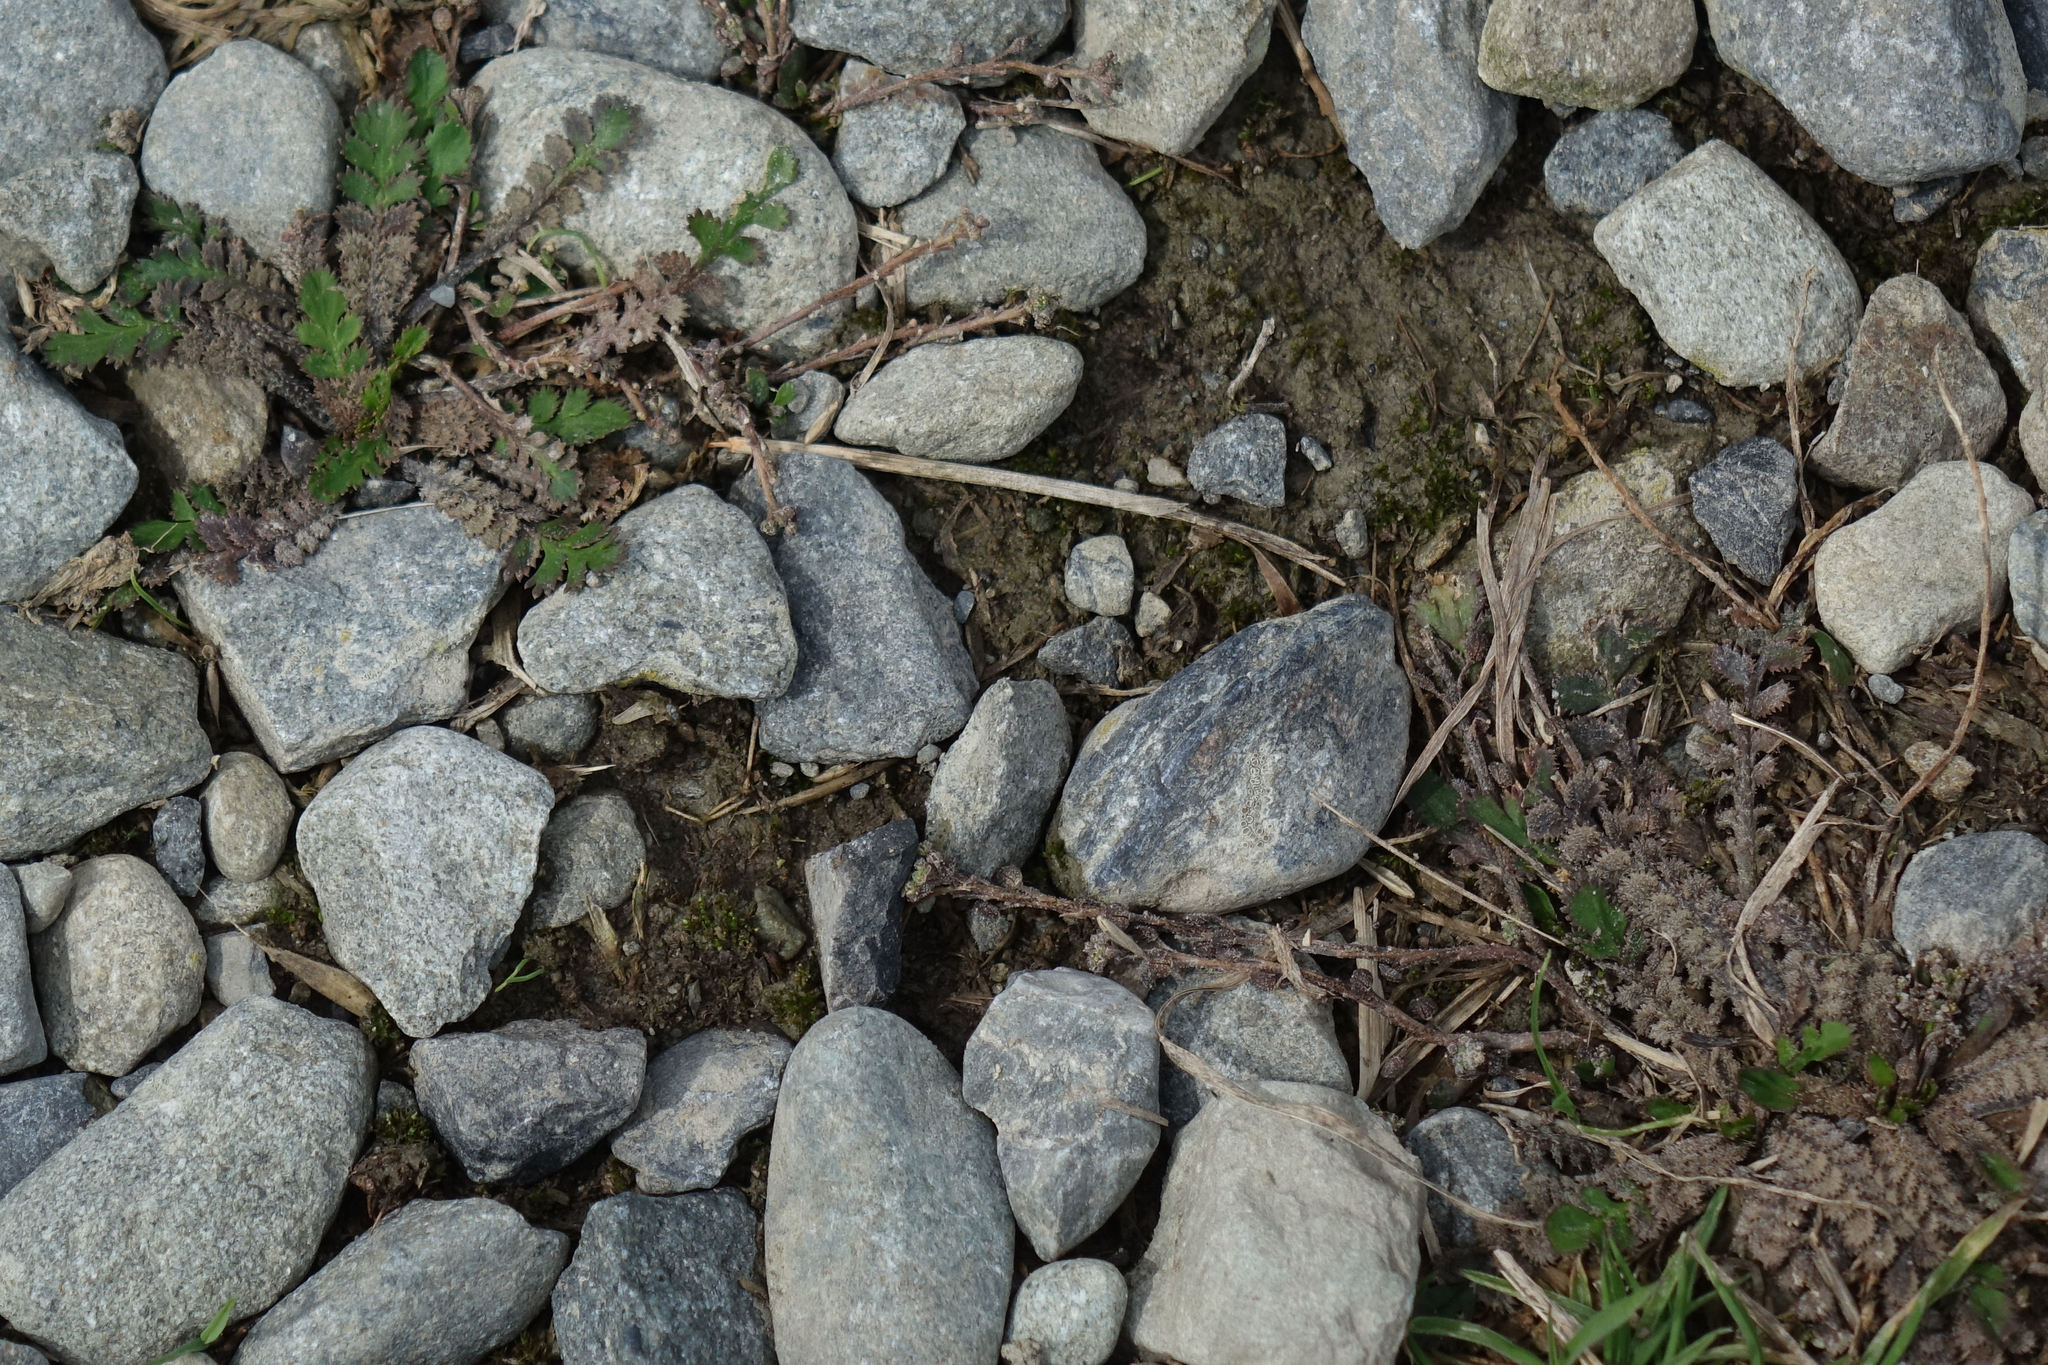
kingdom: Plantae
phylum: Tracheophyta
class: Magnoliopsida
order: Brassicales
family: Brassicaceae
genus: Lepidium
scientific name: Lepidium tenuicaule
